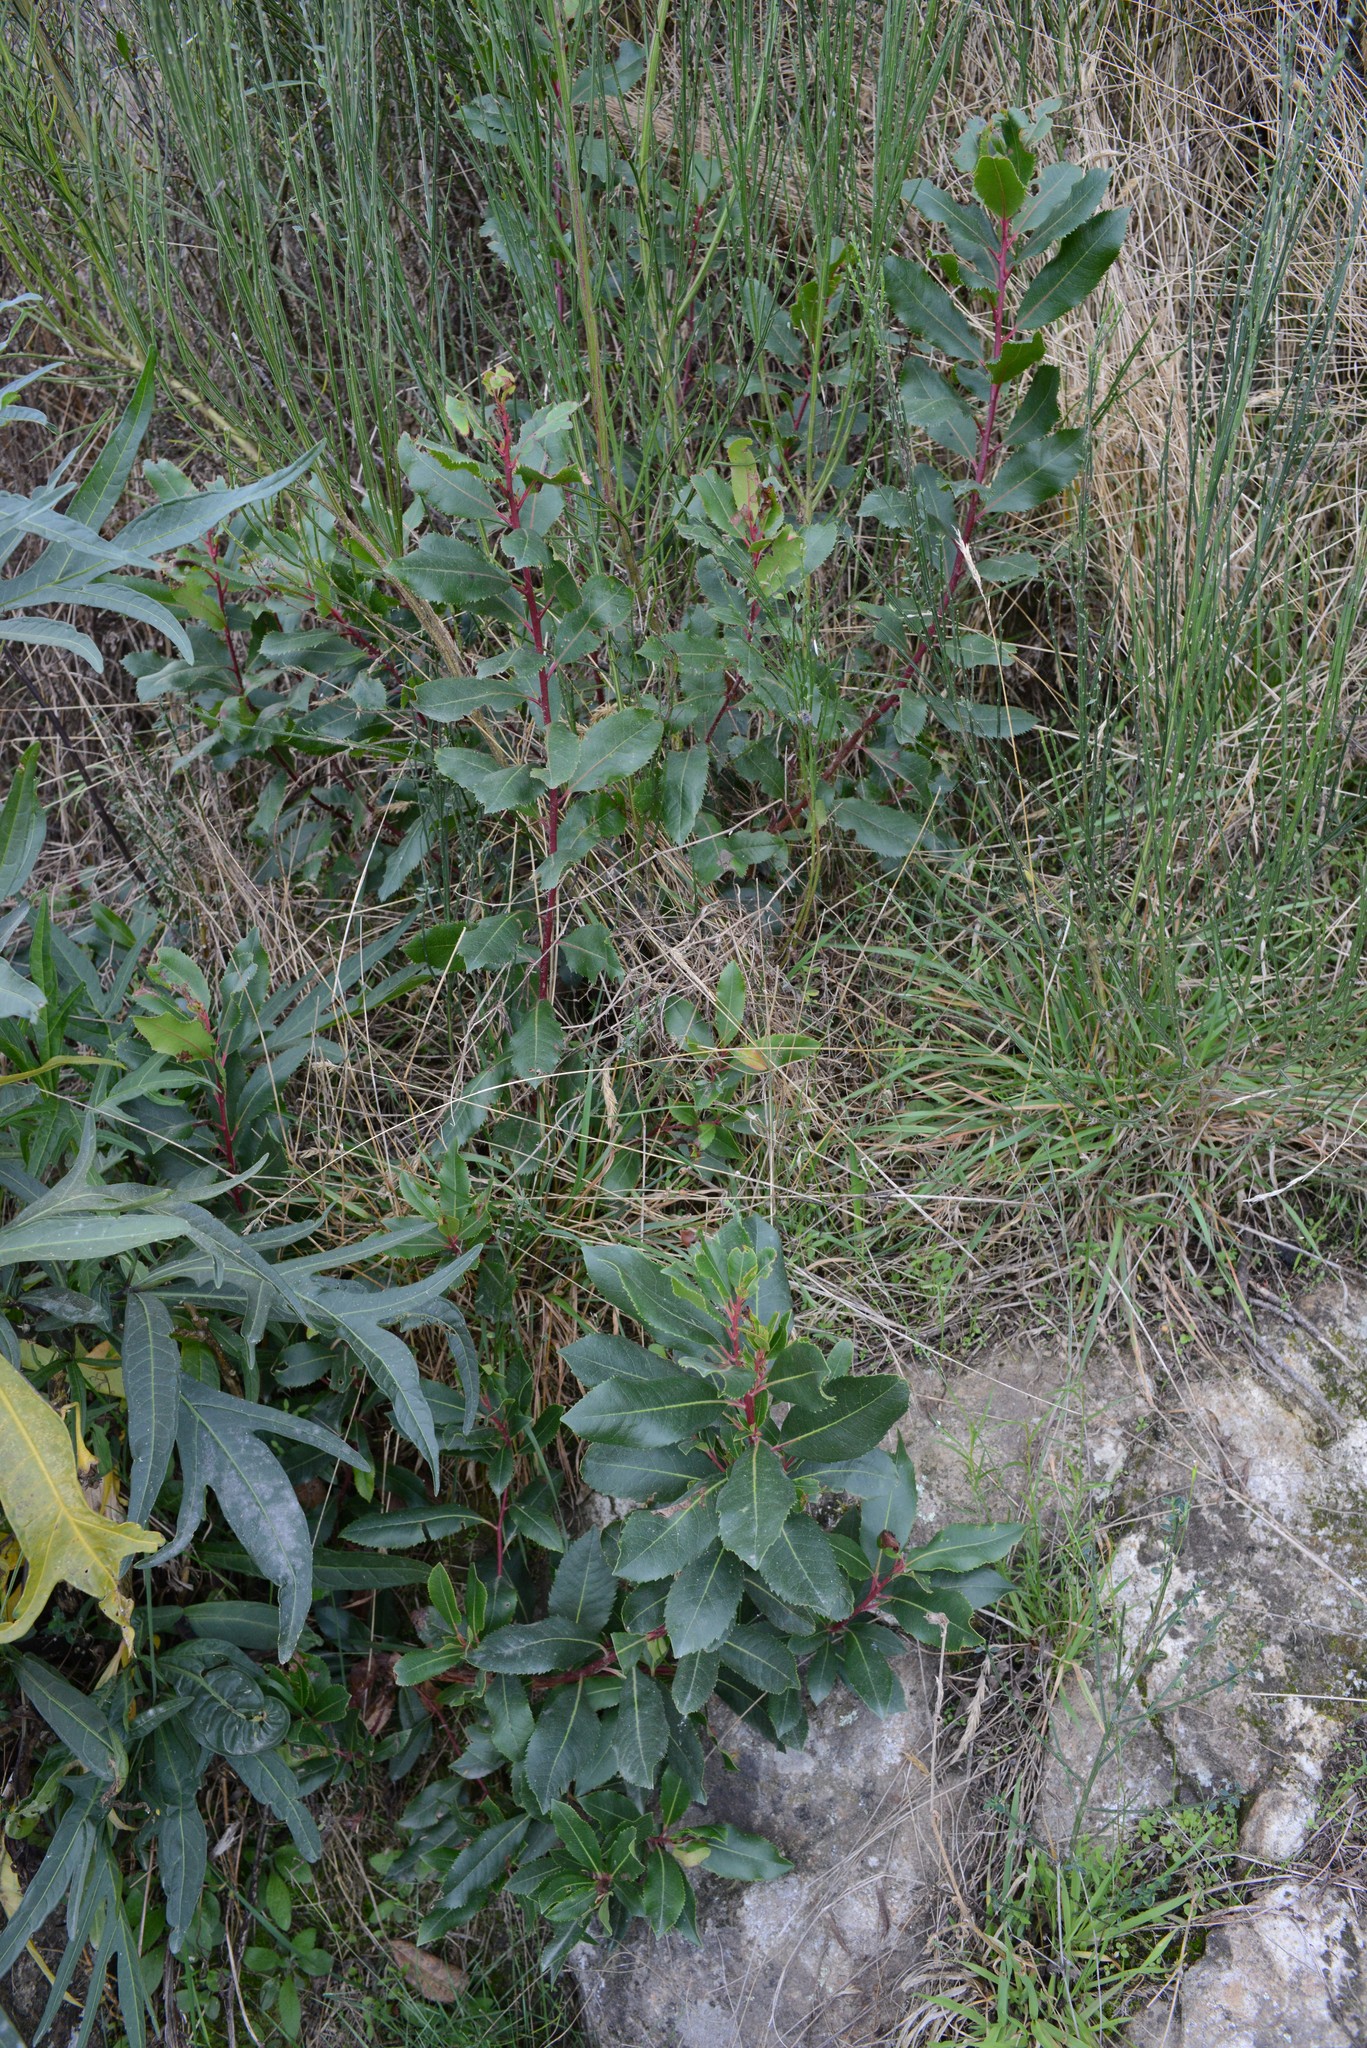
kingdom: Plantae
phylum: Tracheophyta
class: Magnoliopsida
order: Ericales
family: Ericaceae
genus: Arbutus
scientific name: Arbutus unedo
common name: Strawberry-tree
